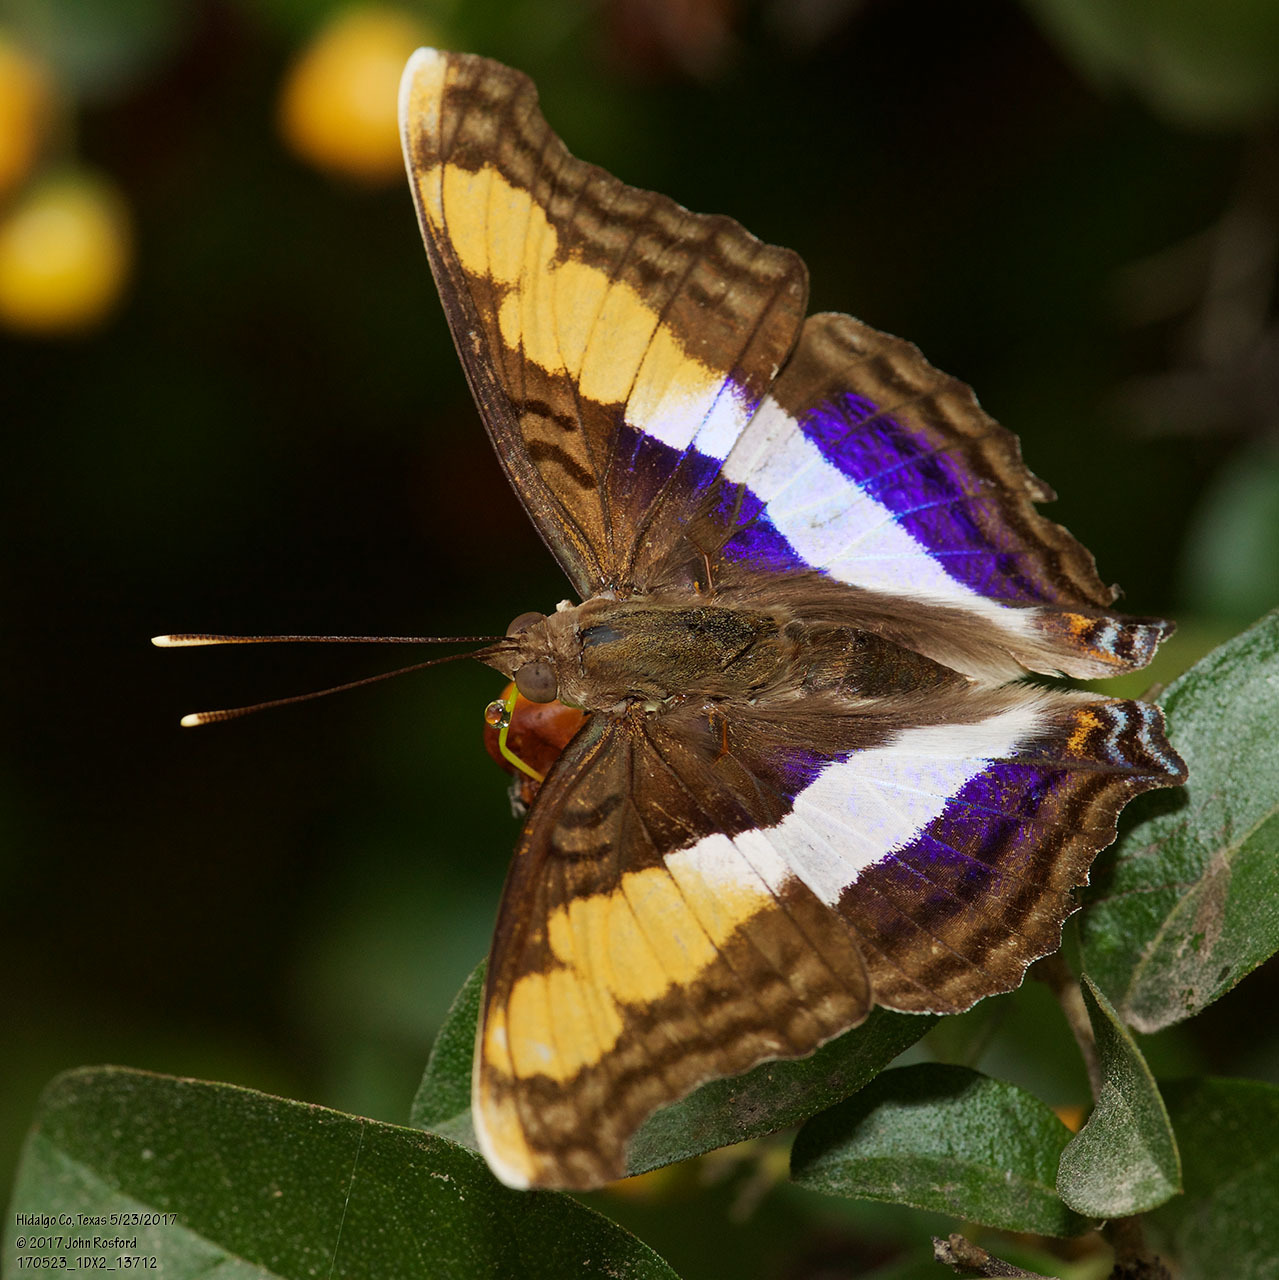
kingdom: Animalia
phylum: Arthropoda
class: Insecta
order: Lepidoptera
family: Nymphalidae
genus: Doxocopa
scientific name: Doxocopa laure
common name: Silver emperor
